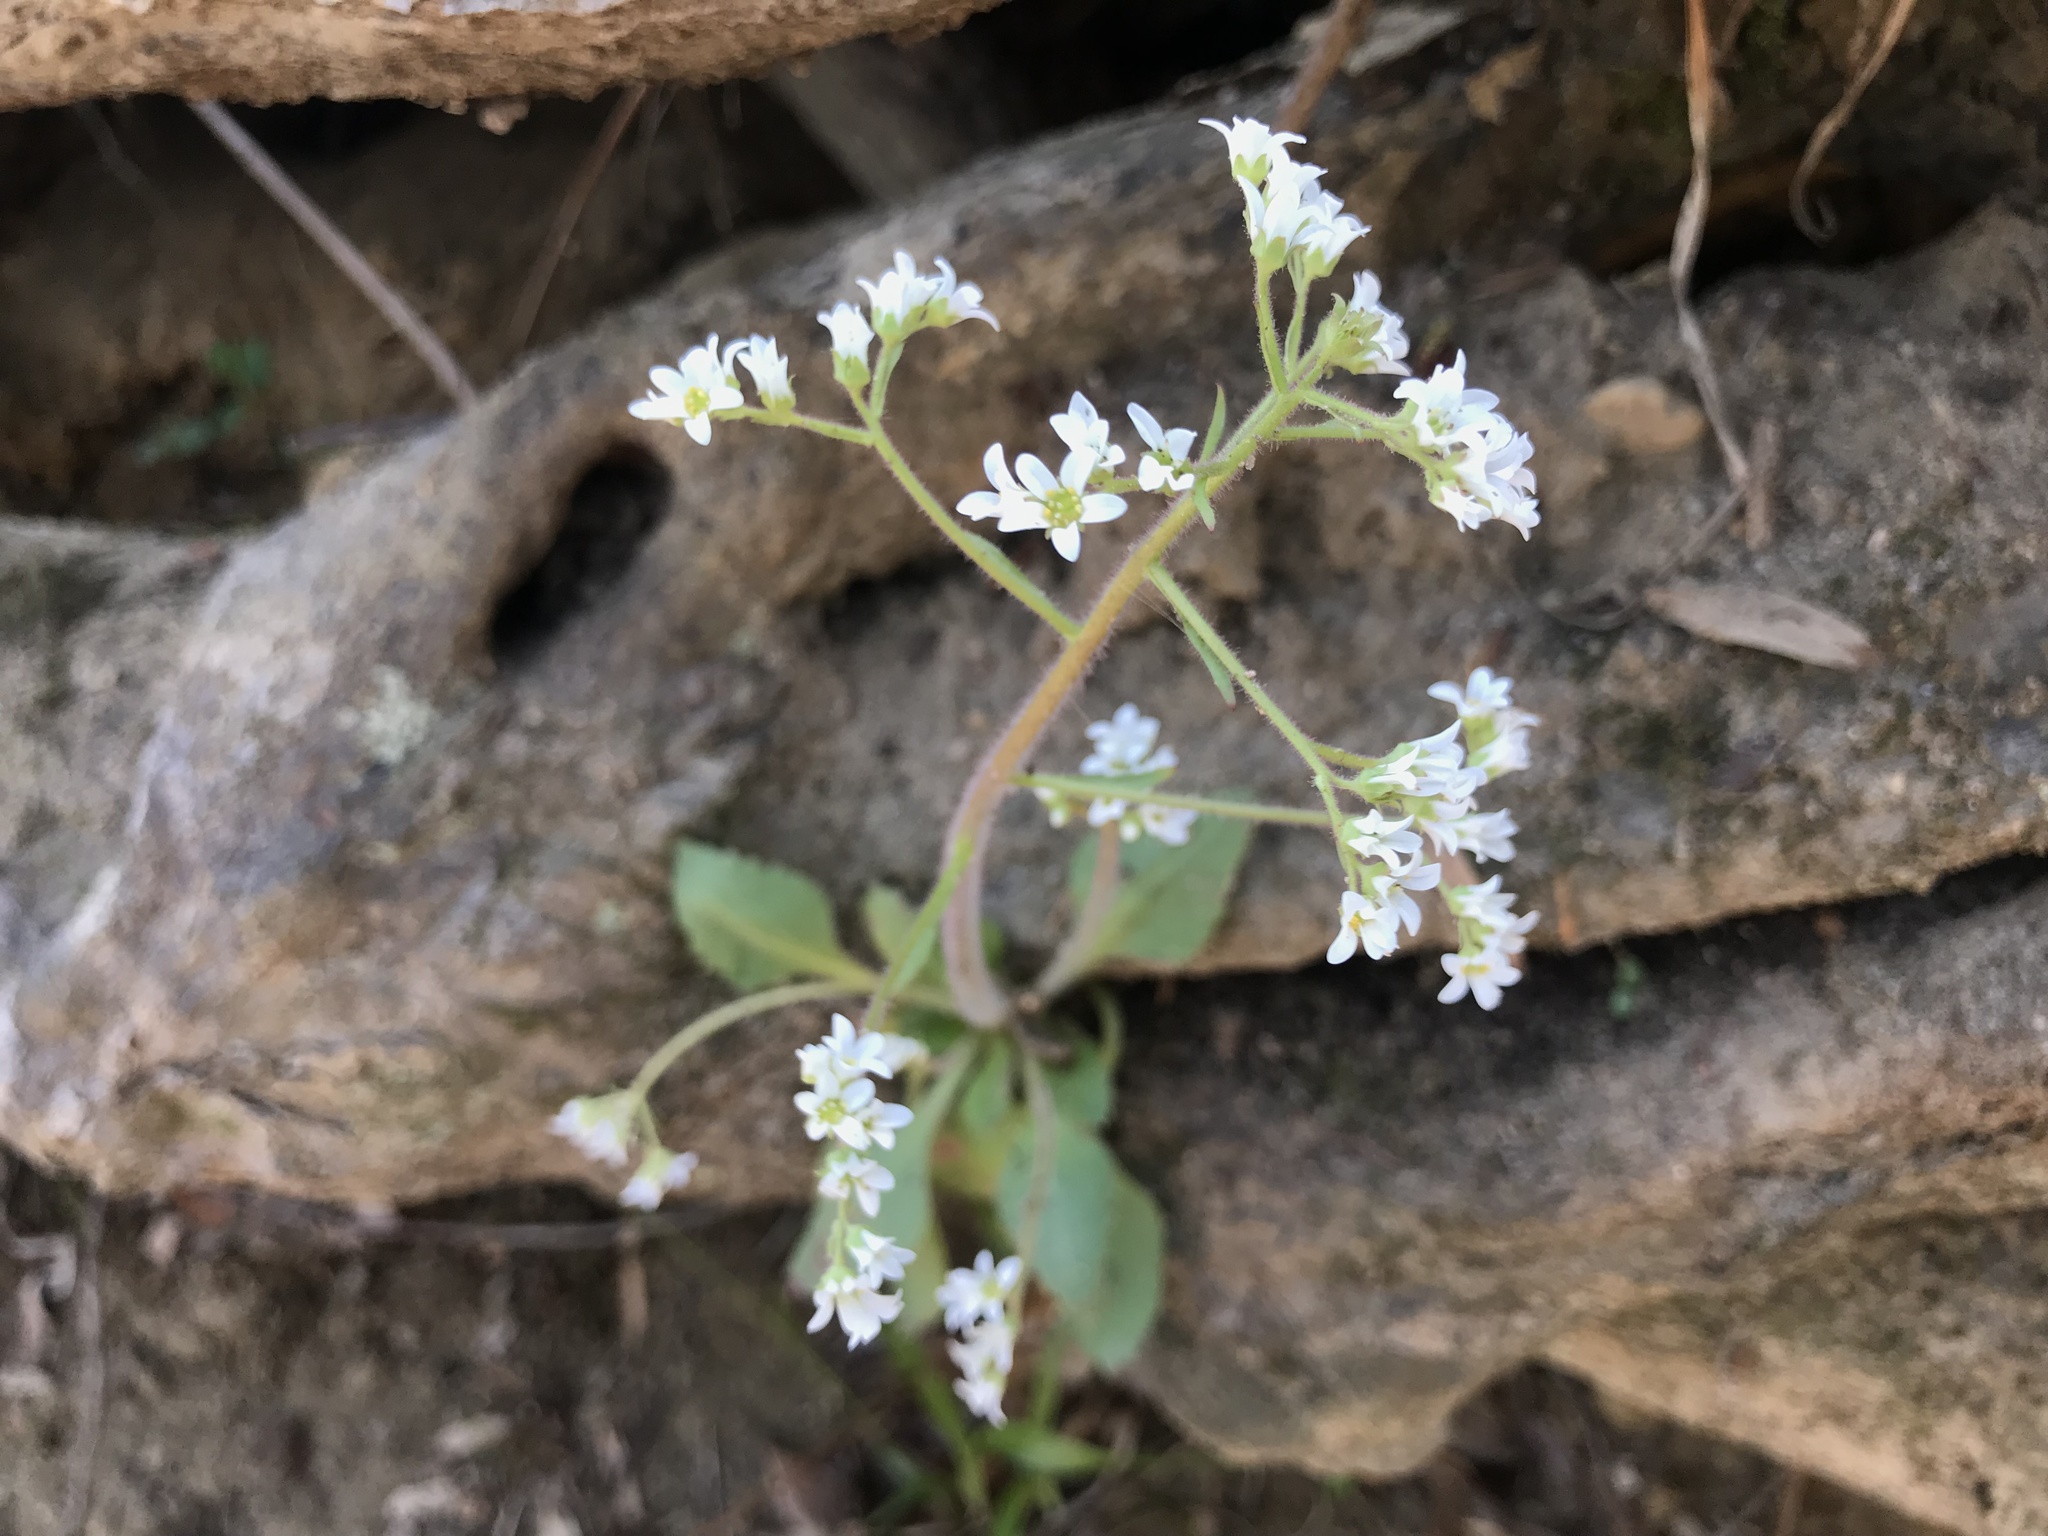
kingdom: Plantae
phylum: Tracheophyta
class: Magnoliopsida
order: Saxifragales
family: Saxifragaceae
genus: Micranthes
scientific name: Micranthes virginiensis
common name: Early saxifrage
